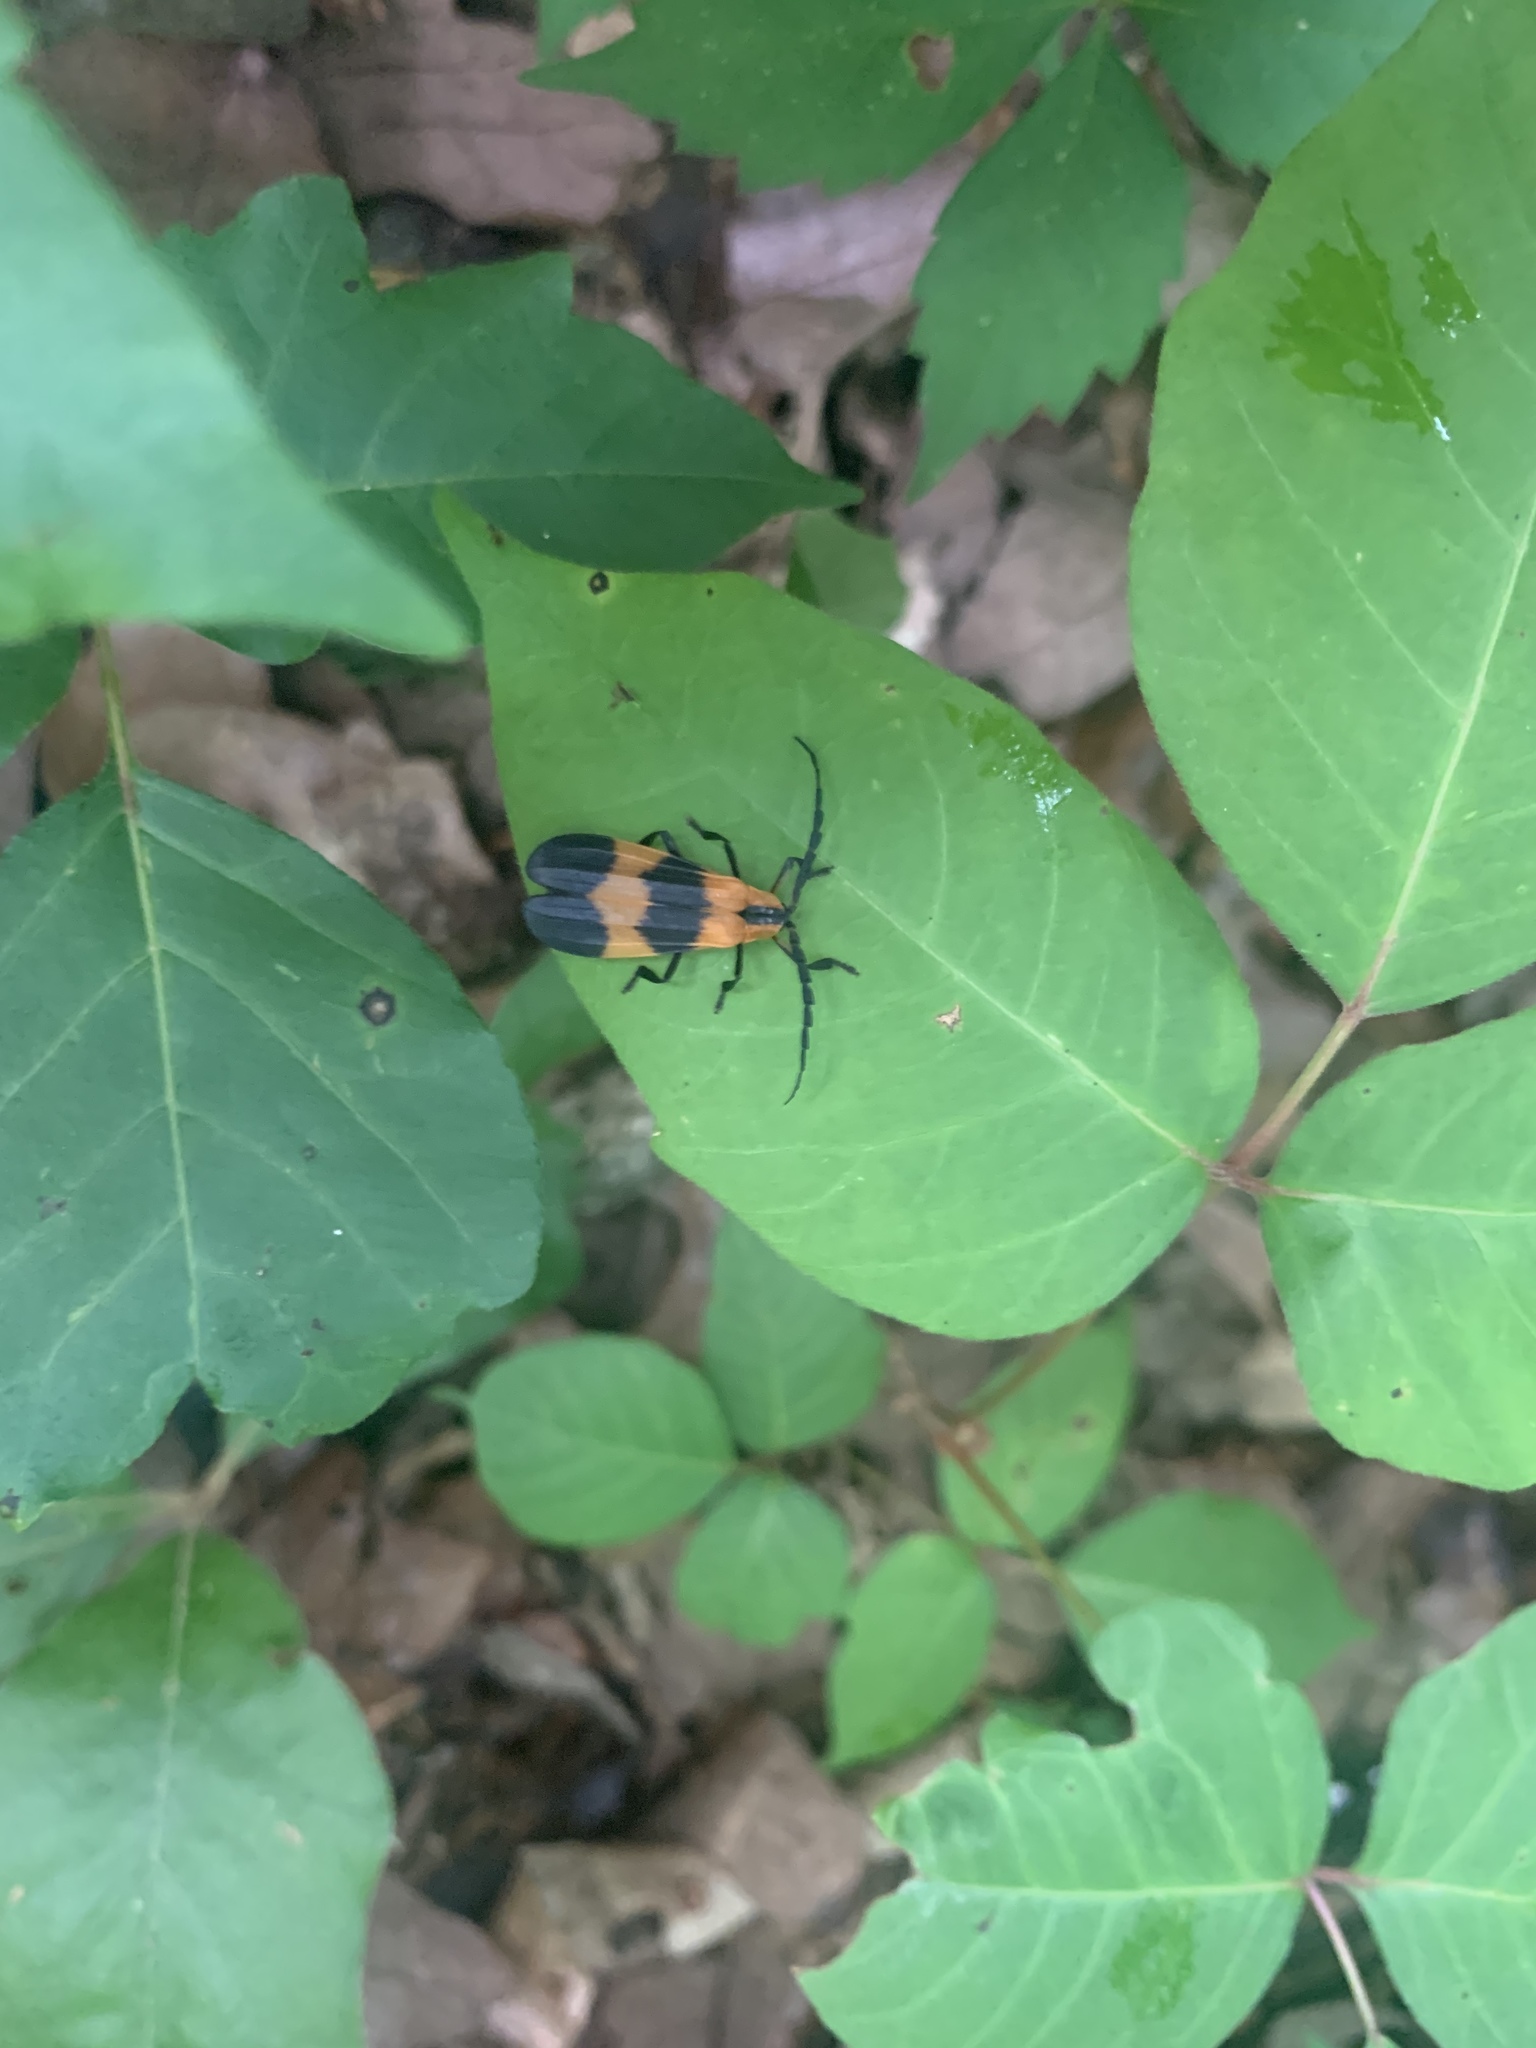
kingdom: Animalia
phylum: Arthropoda
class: Insecta
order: Coleoptera
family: Lycidae
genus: Calopteron
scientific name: Calopteron reticulatum
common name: Banded net-winged beetle
